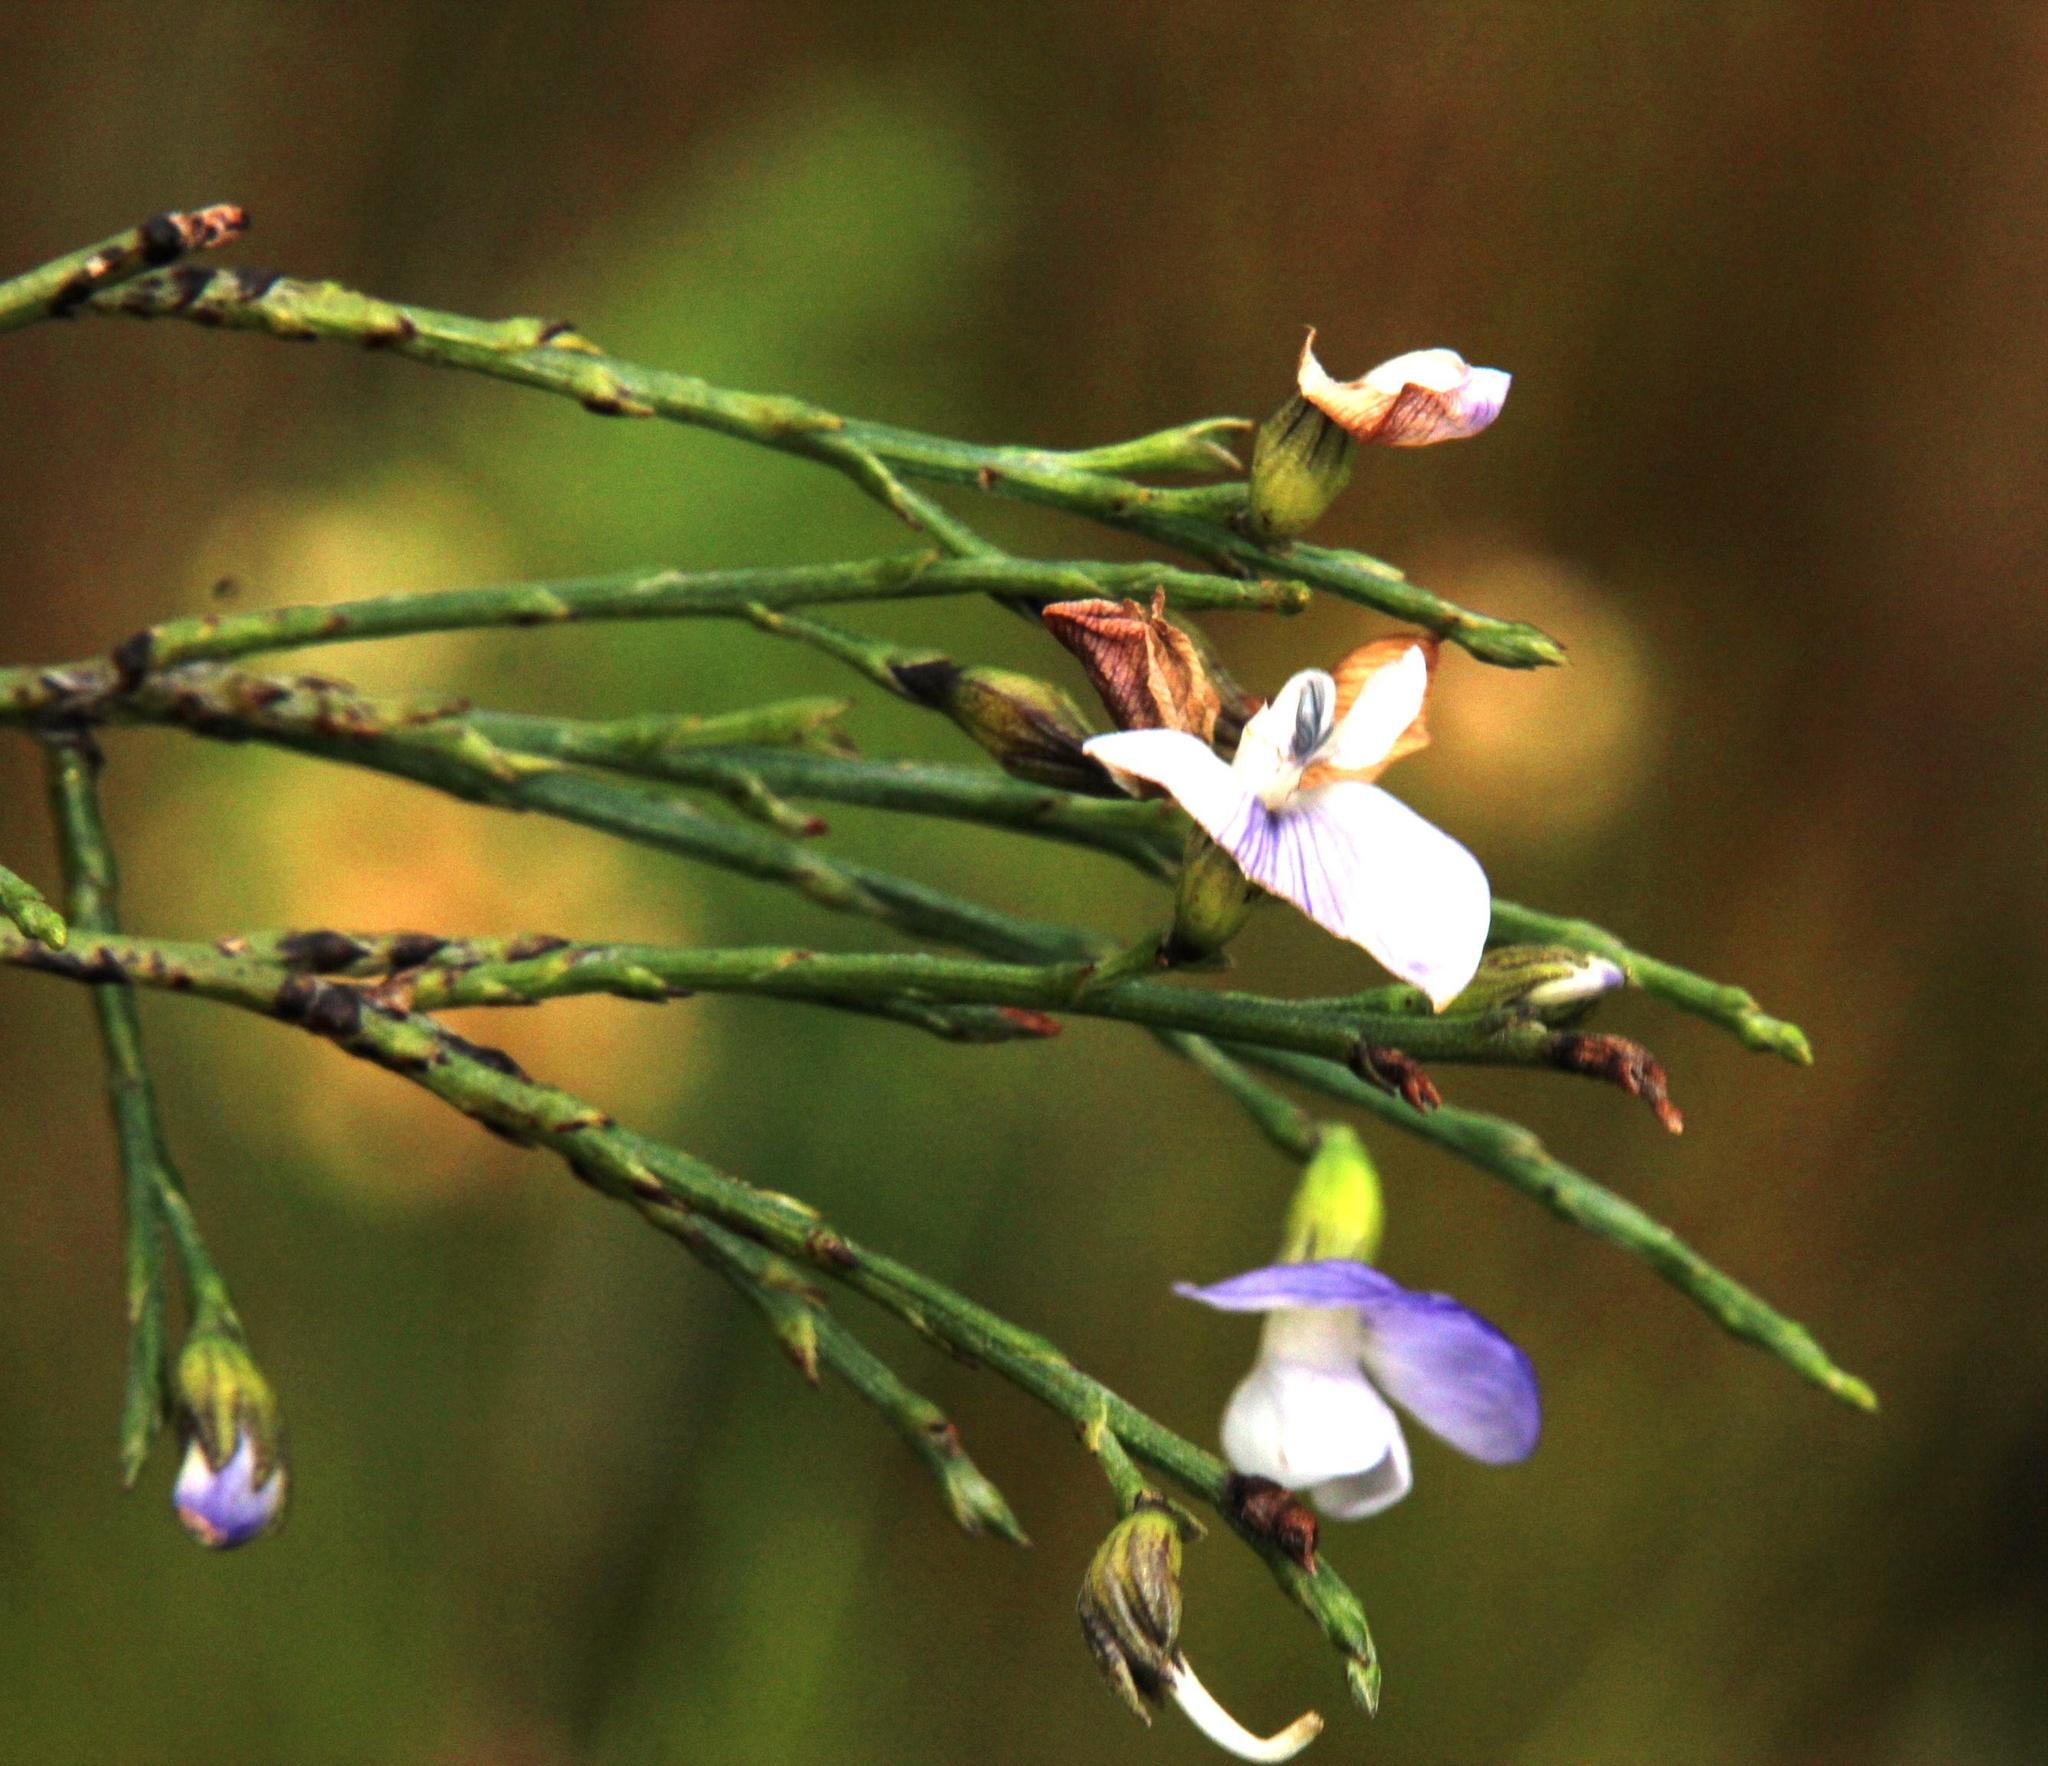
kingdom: Plantae
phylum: Tracheophyta
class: Magnoliopsida
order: Fabales
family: Fabaceae
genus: Psoralea
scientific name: Psoralea usitata
